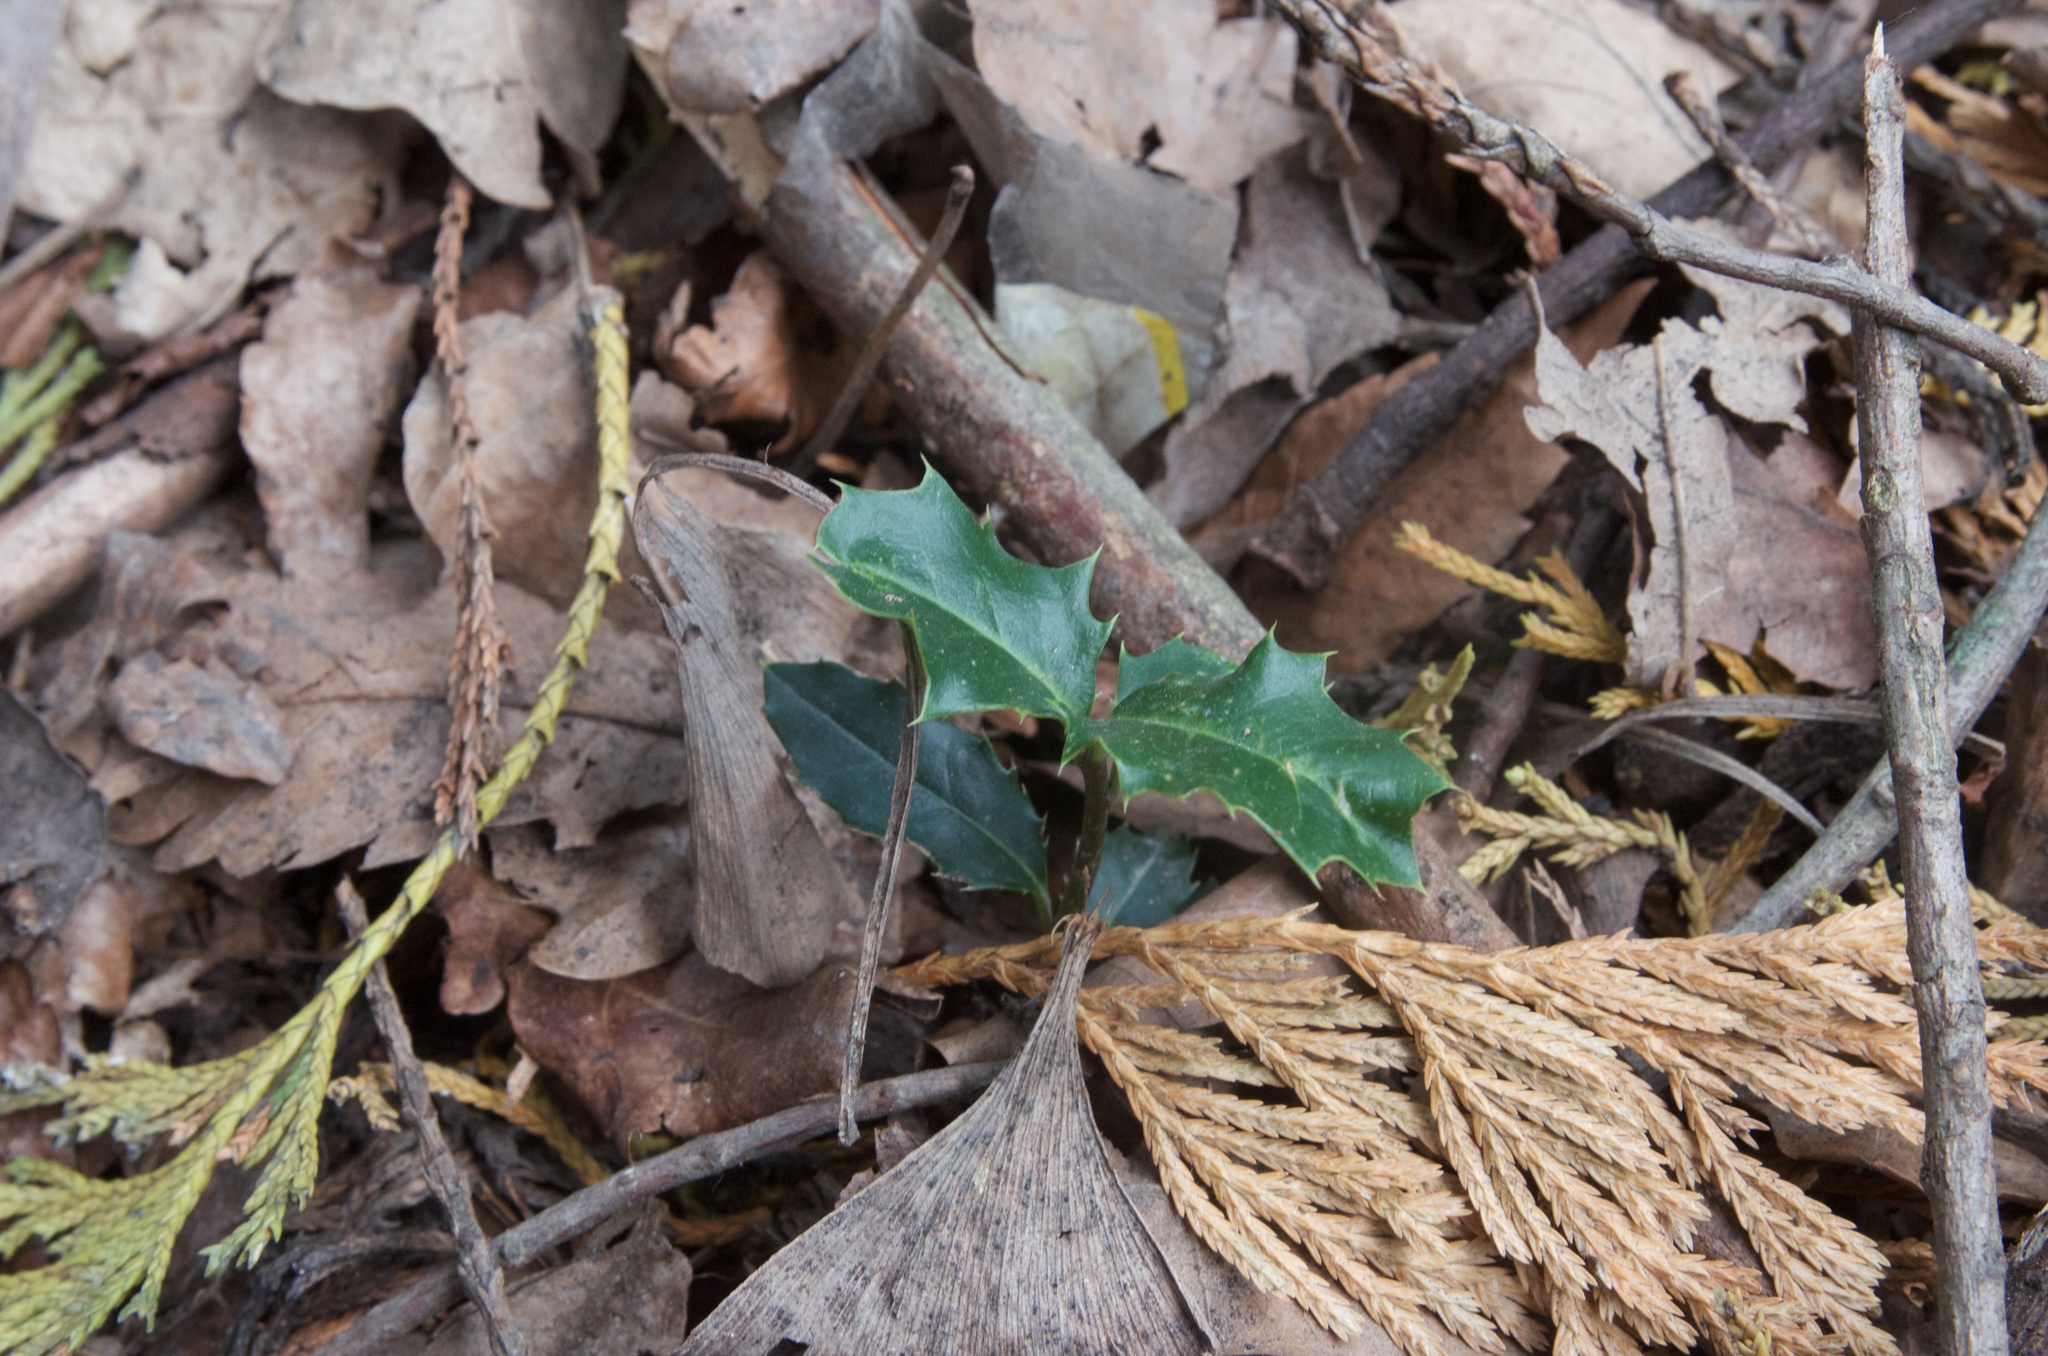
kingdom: Plantae
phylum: Tracheophyta
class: Magnoliopsida
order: Aquifoliales
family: Aquifoliaceae
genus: Ilex
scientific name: Ilex aquifolium
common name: English holly
